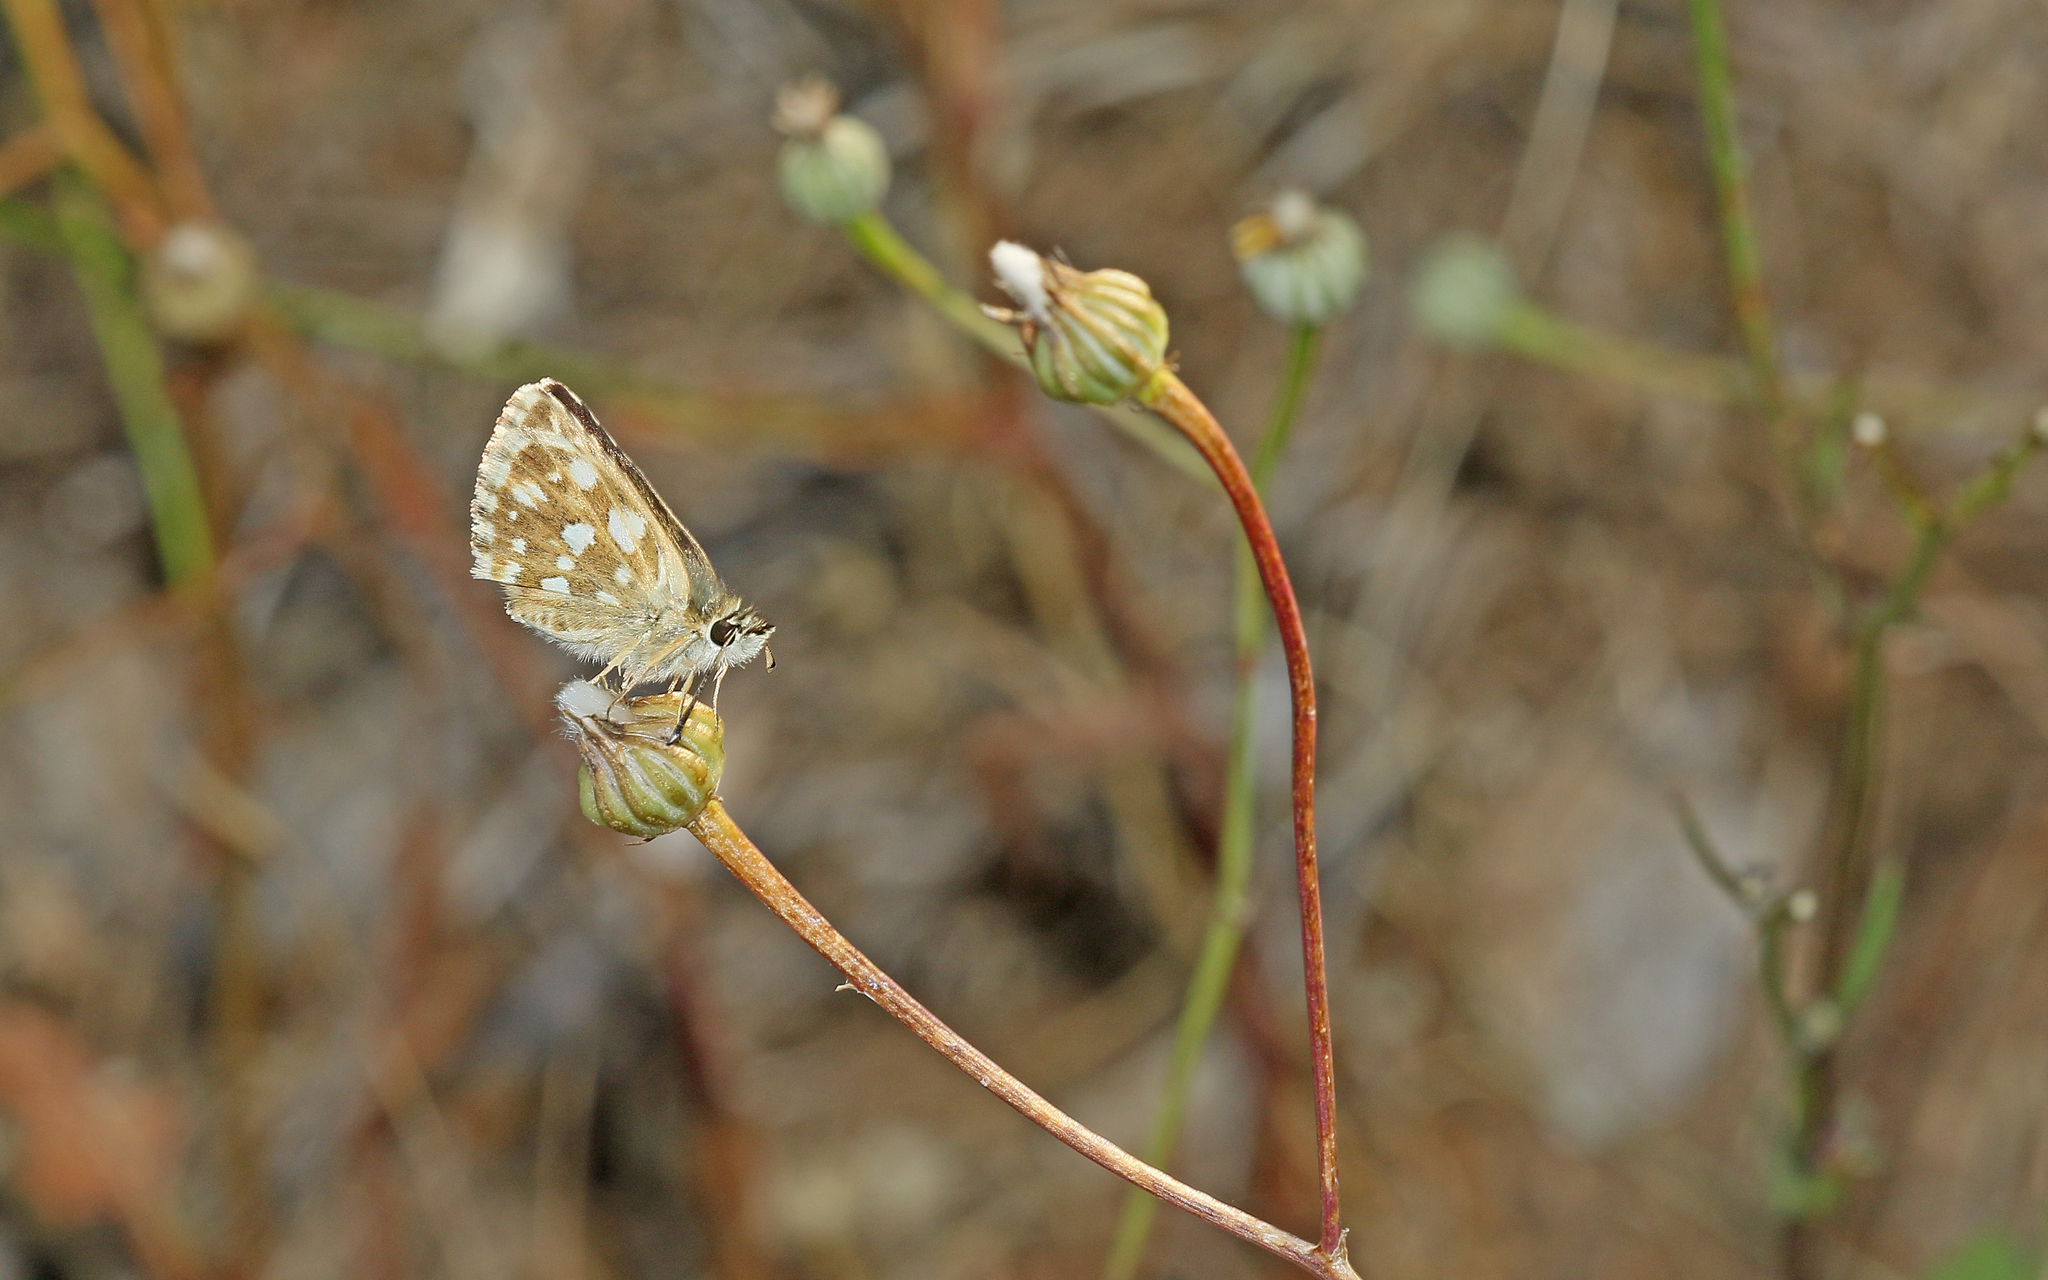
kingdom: Animalia
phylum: Arthropoda
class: Insecta
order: Lepidoptera
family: Hesperiidae
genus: Spialia
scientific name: Spialia sertorius
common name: Red underwing skipper
